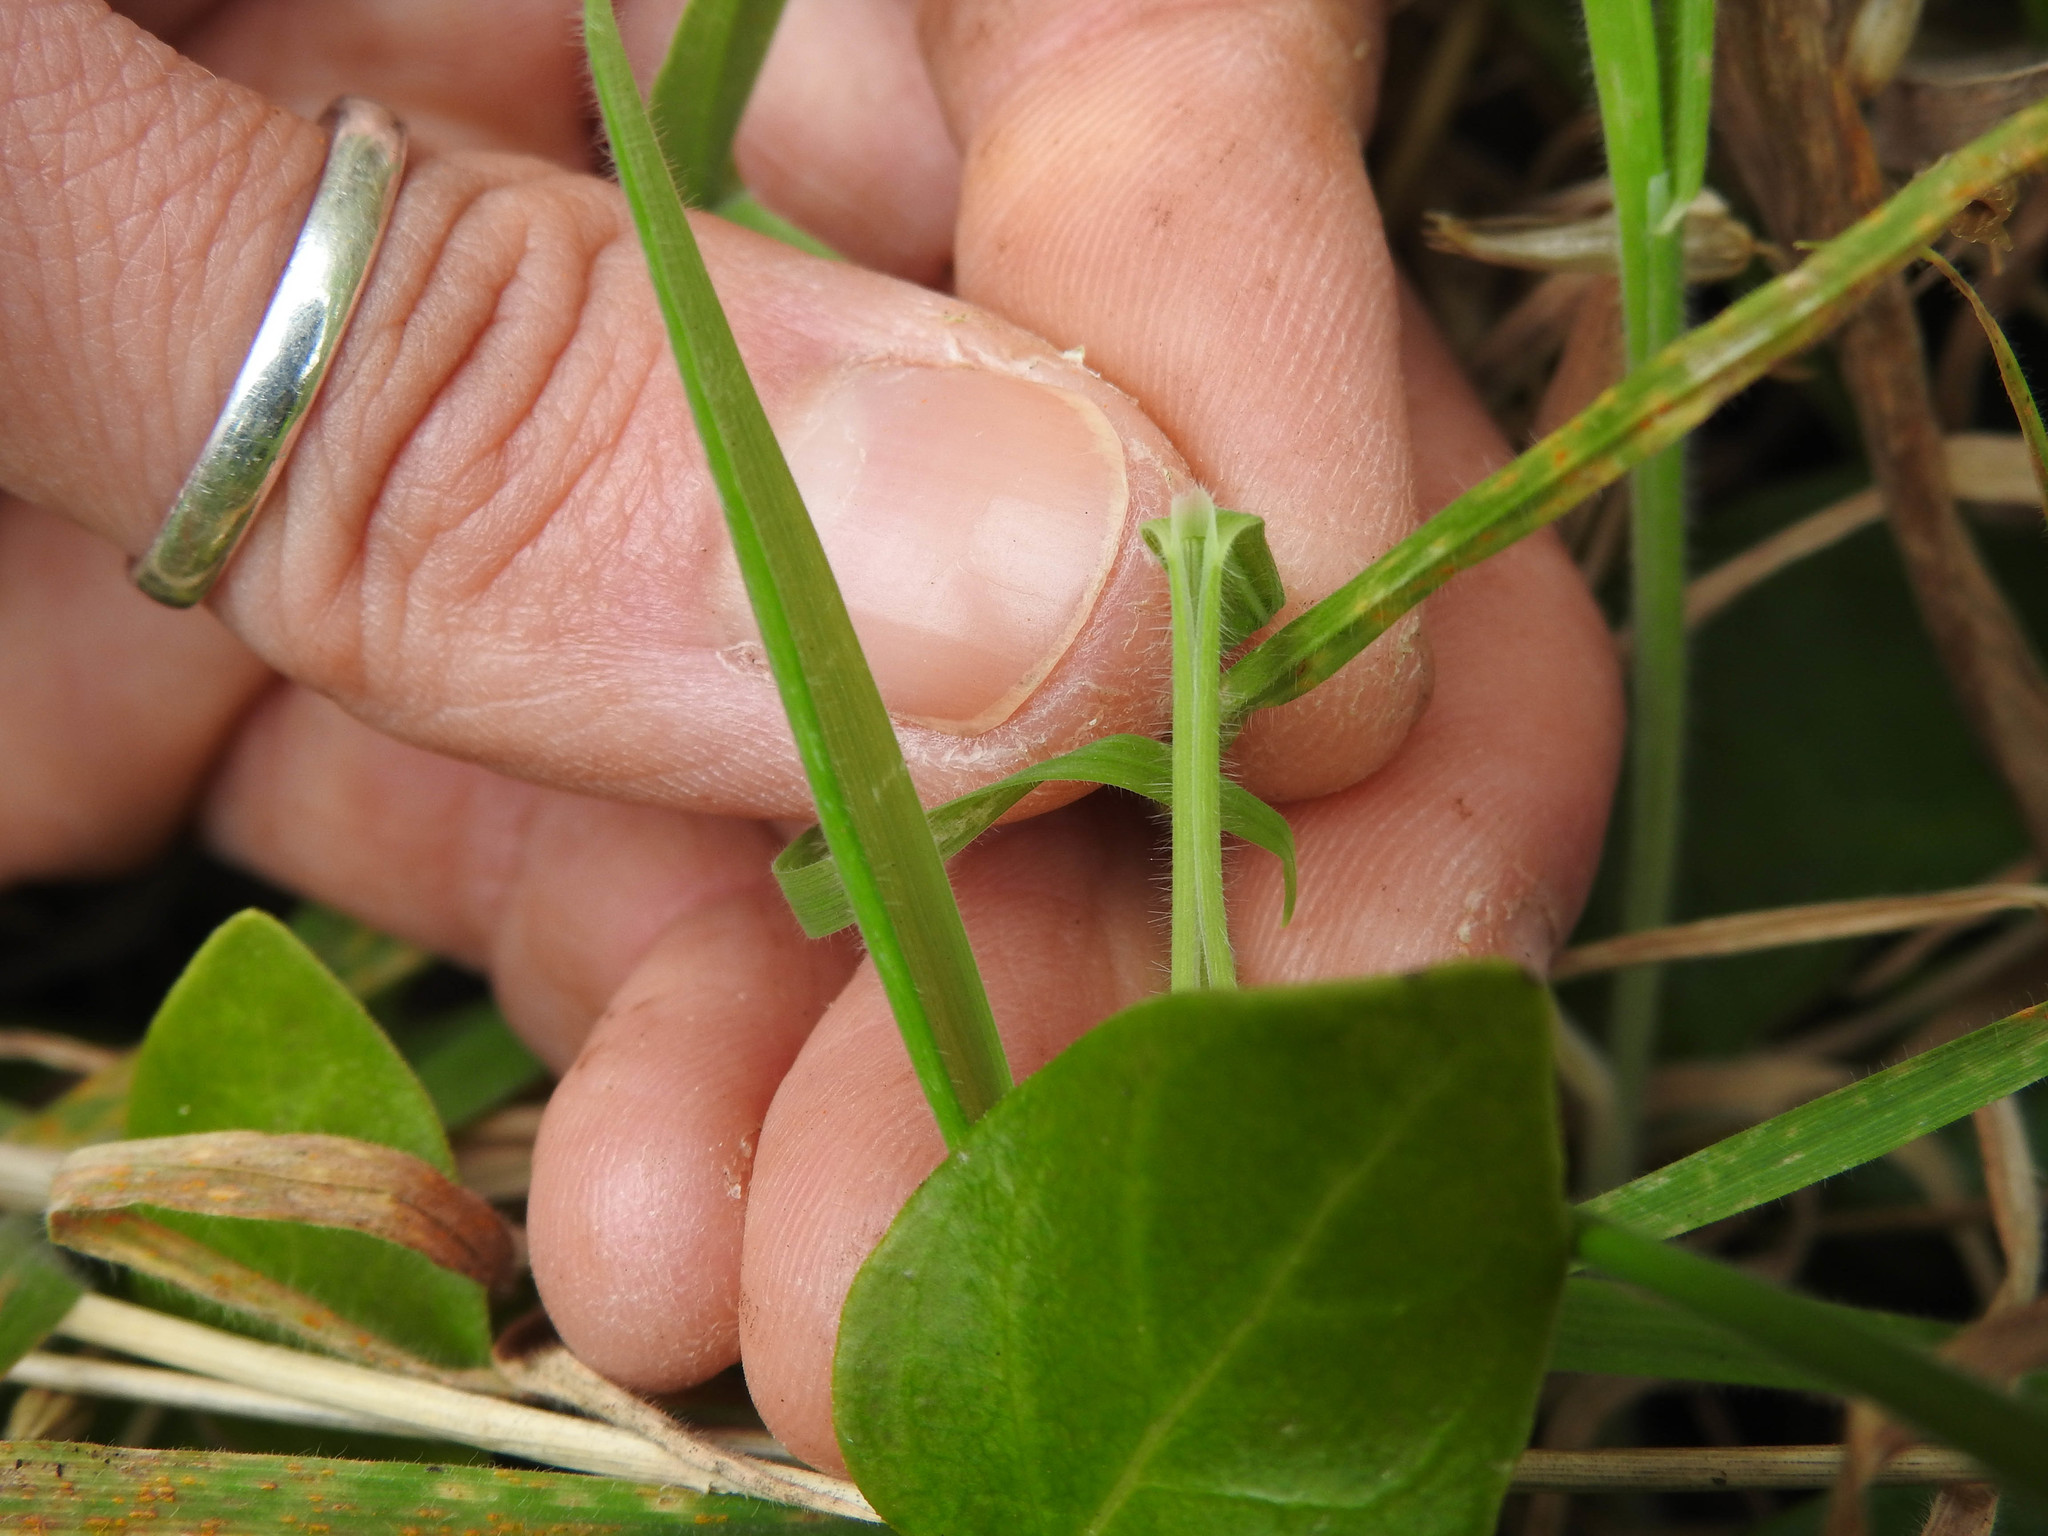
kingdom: Plantae
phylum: Tracheophyta
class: Liliopsida
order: Poales
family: Poaceae
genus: Holcus
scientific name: Holcus lanatus
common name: Yorkshire-fog
